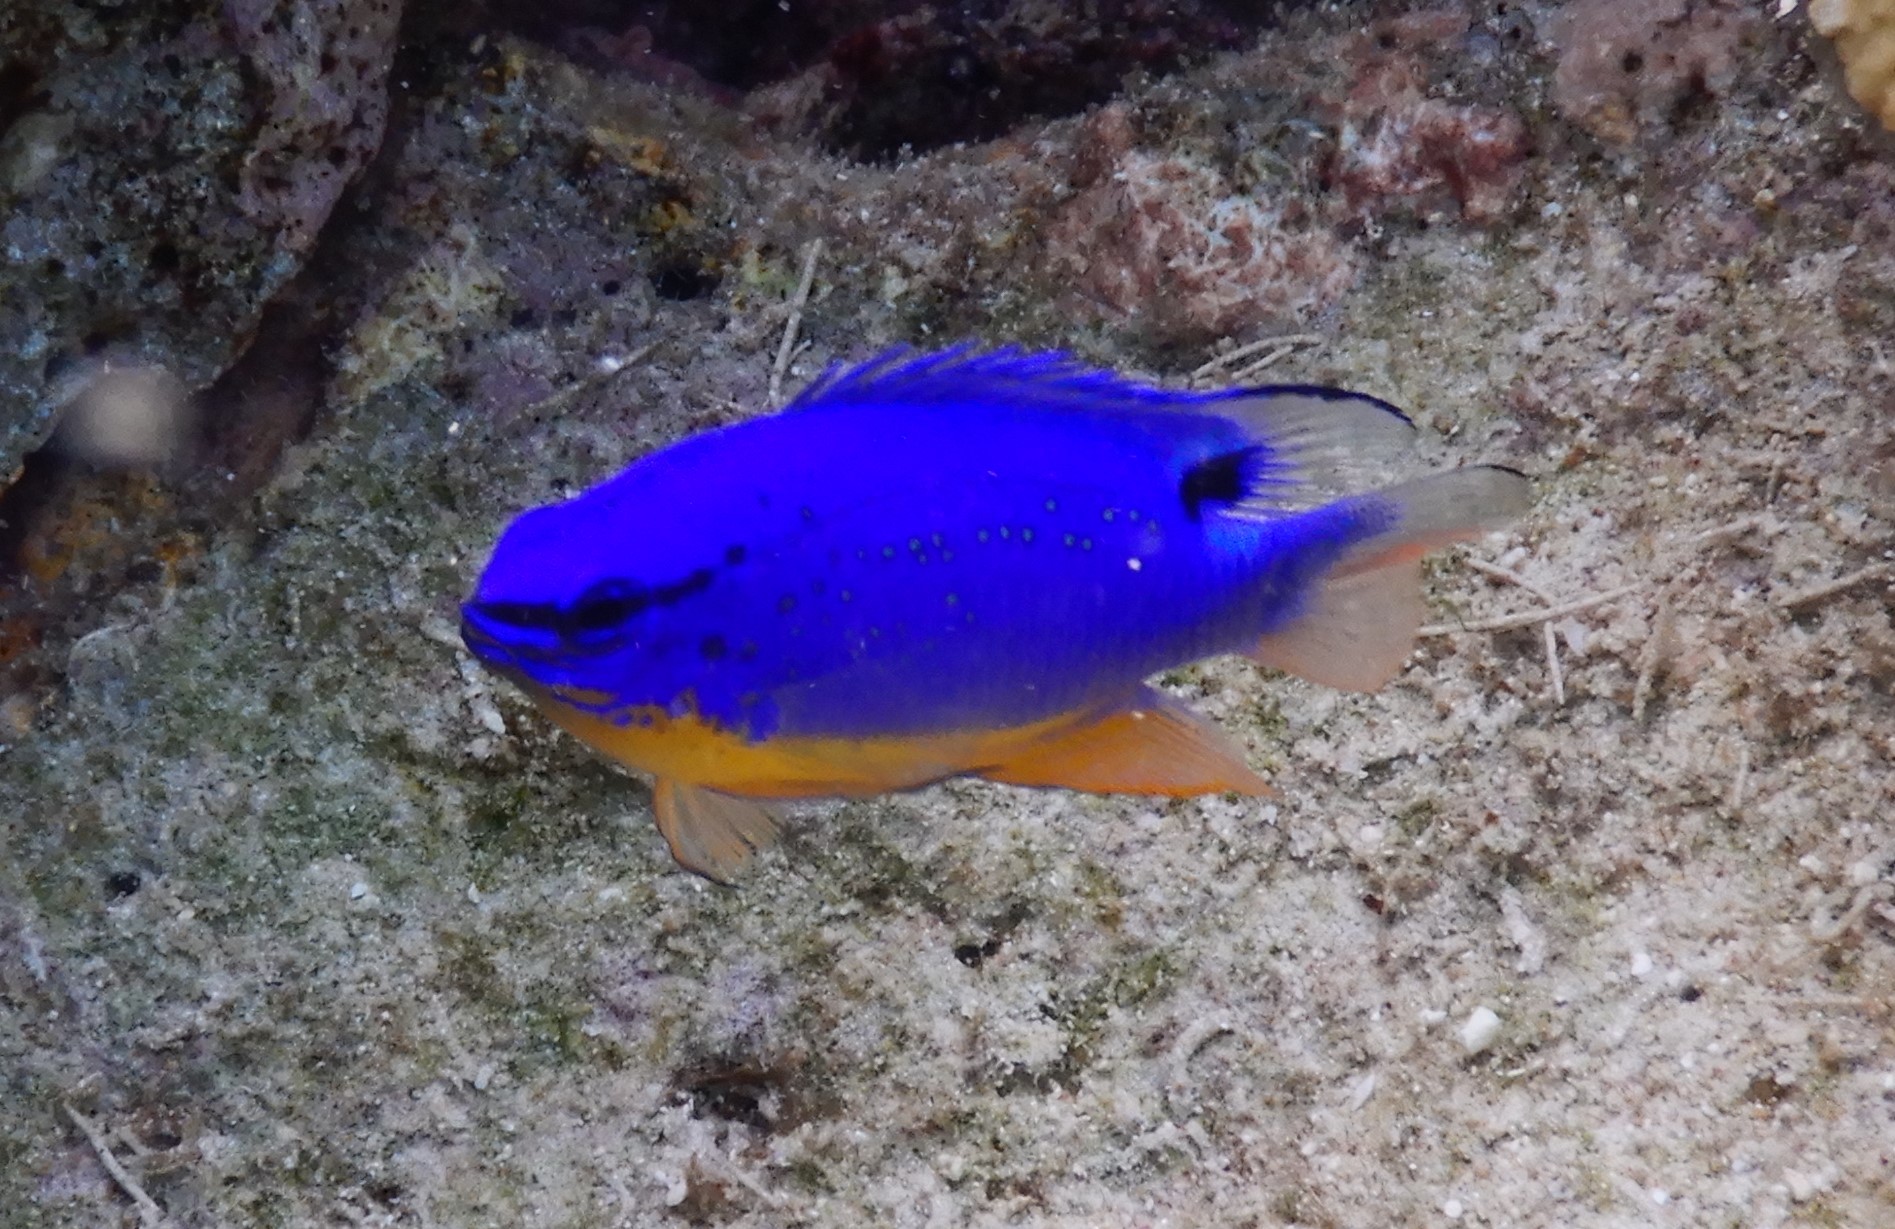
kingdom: Animalia
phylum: Chordata
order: Perciformes
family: Pomacentridae
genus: Chrysiptera
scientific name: Chrysiptera taupou
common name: Fiji damsel
